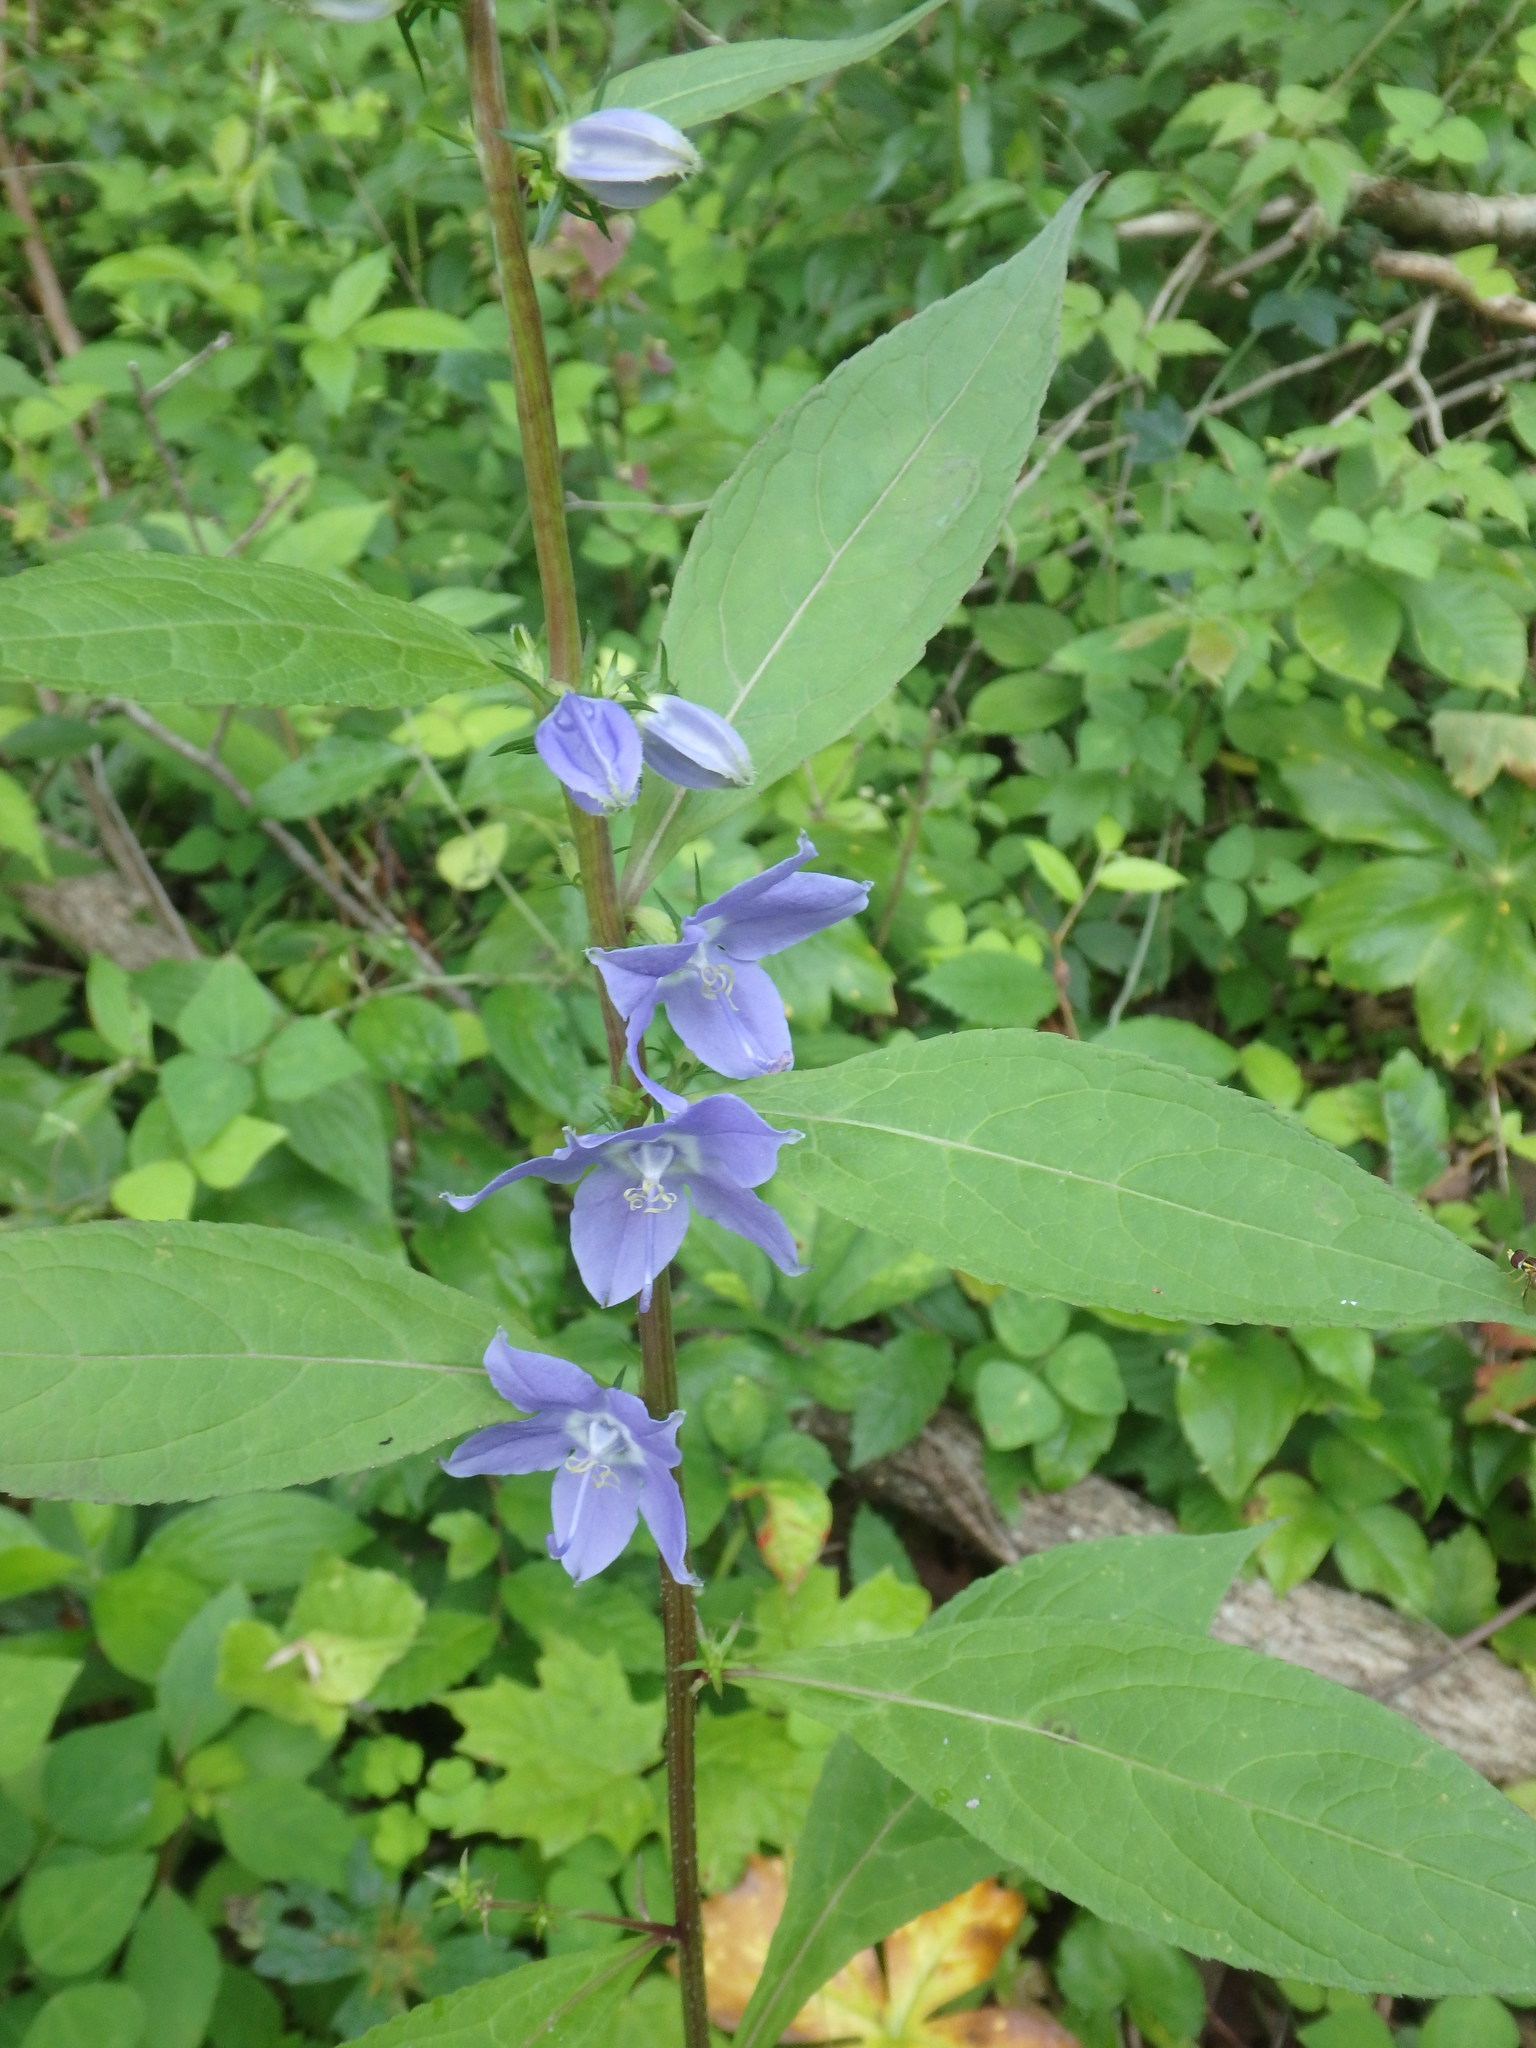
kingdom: Plantae
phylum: Tracheophyta
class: Magnoliopsida
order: Asterales
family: Campanulaceae
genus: Campanulastrum
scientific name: Campanulastrum americanum
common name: American bellflower
